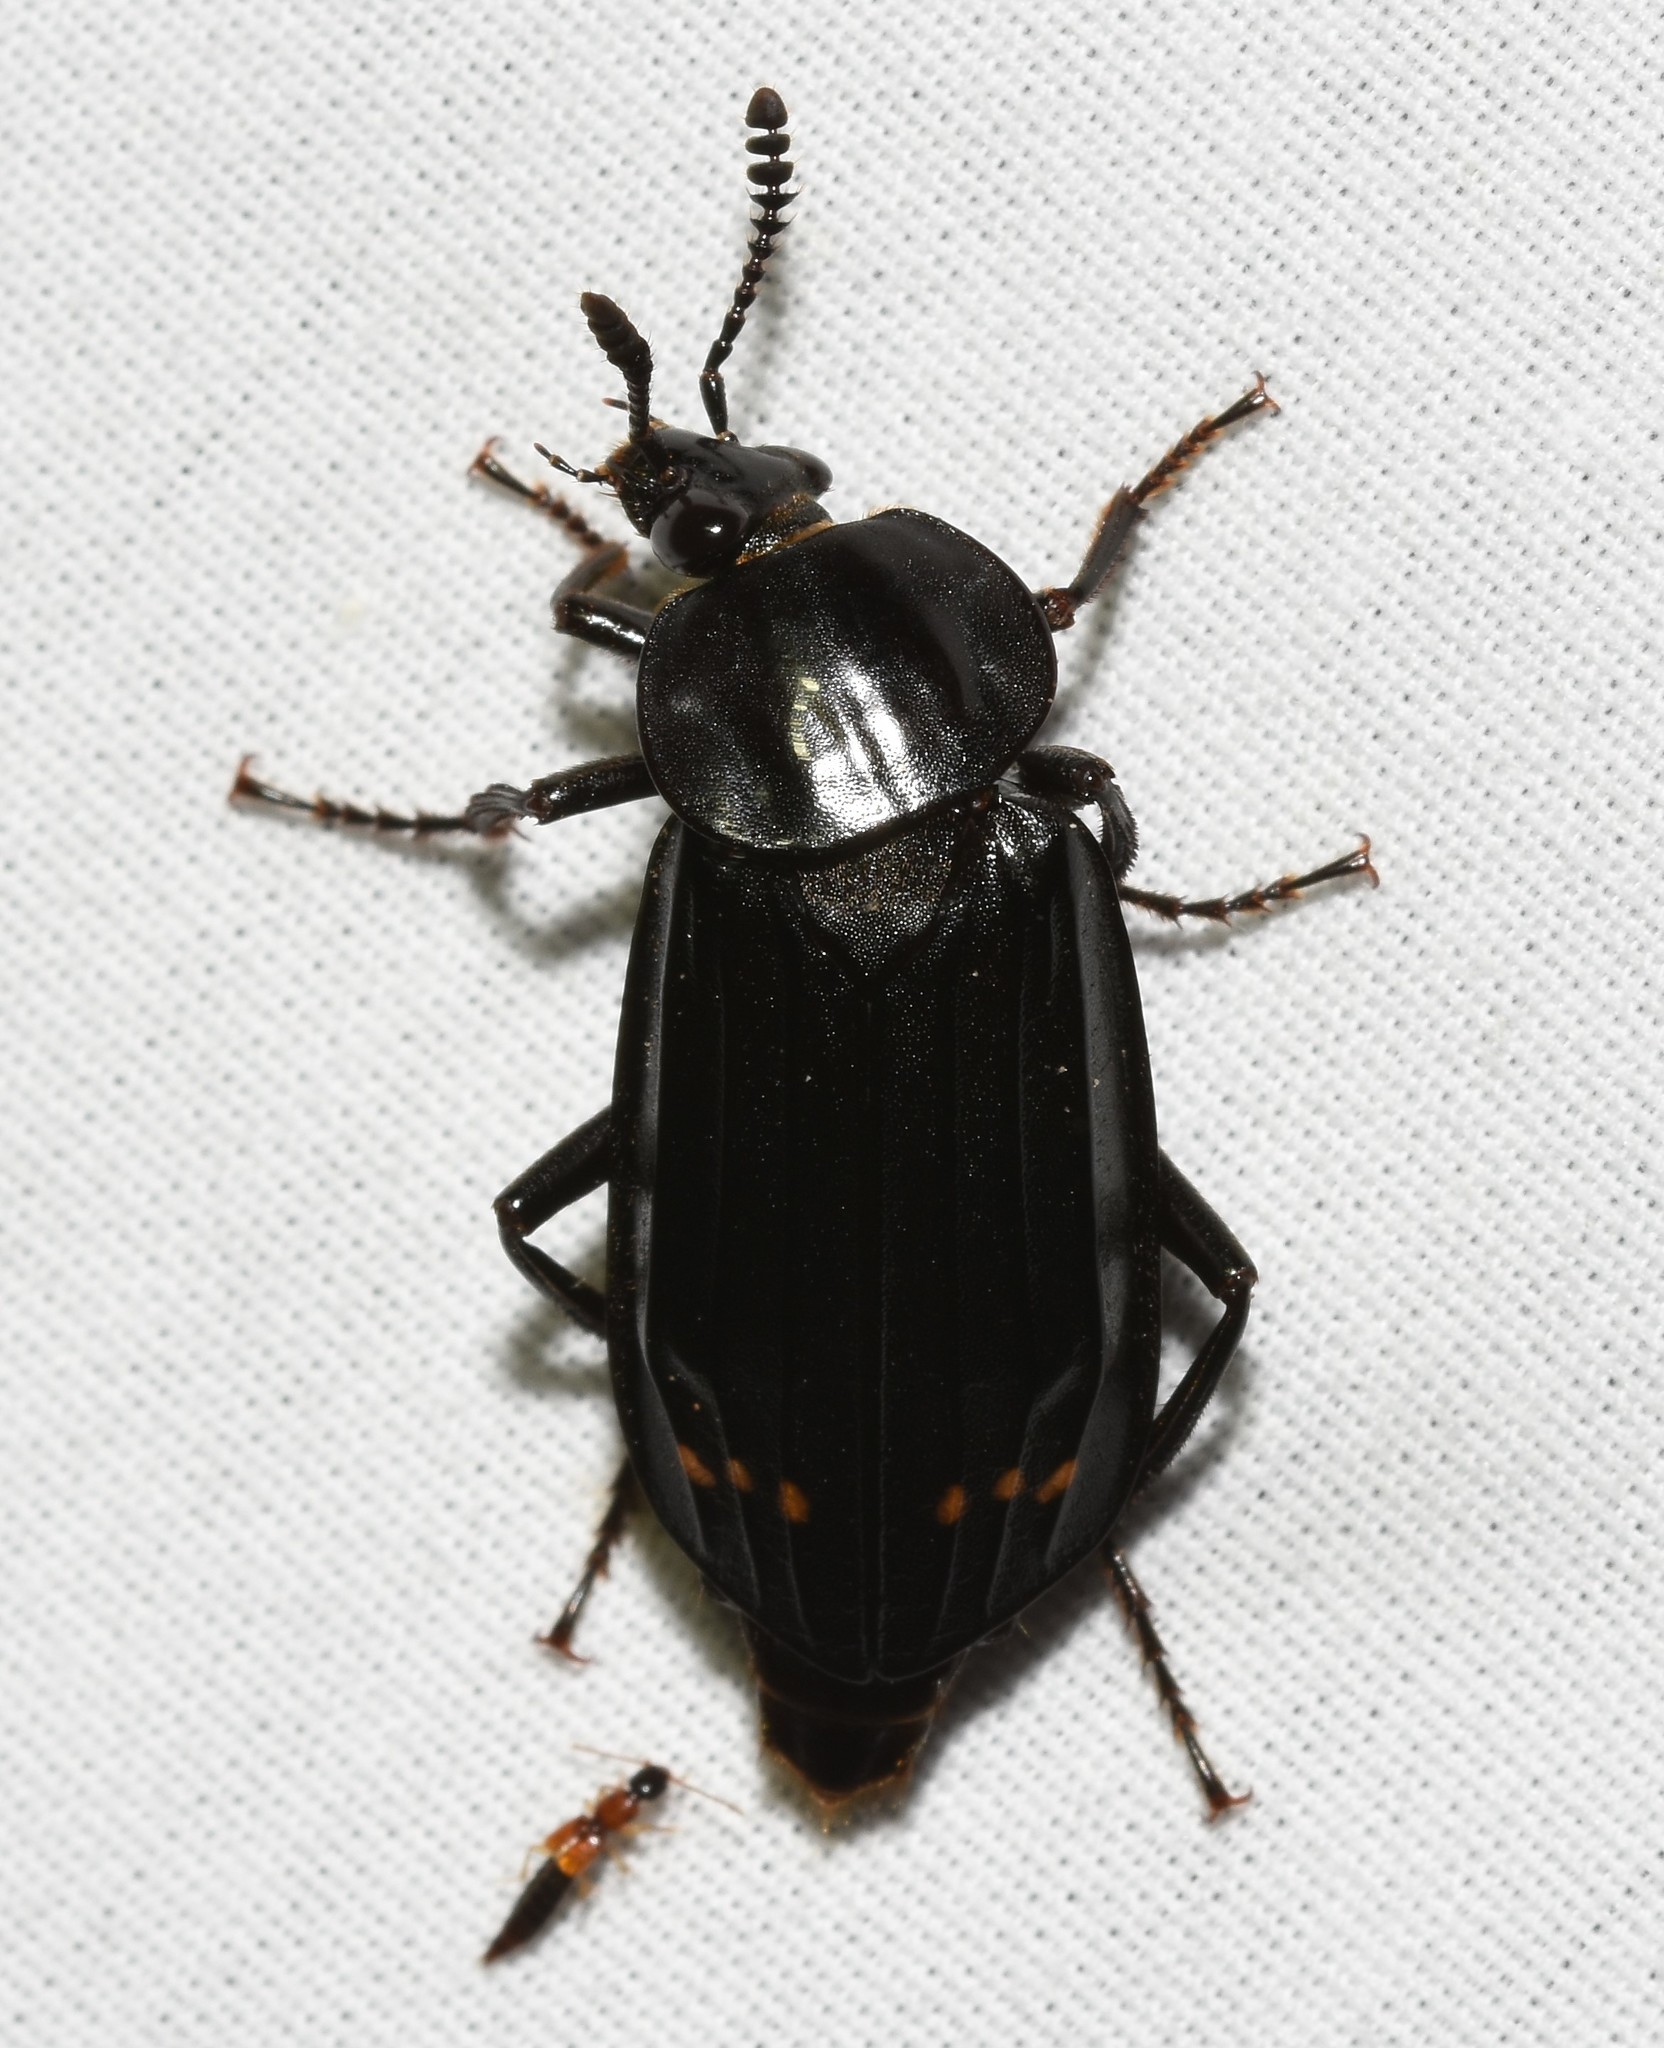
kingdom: Animalia
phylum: Arthropoda
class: Insecta
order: Coleoptera
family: Staphylinidae
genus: Necrodes
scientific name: Necrodes surinamensis
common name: Red-lined carrion beetle
